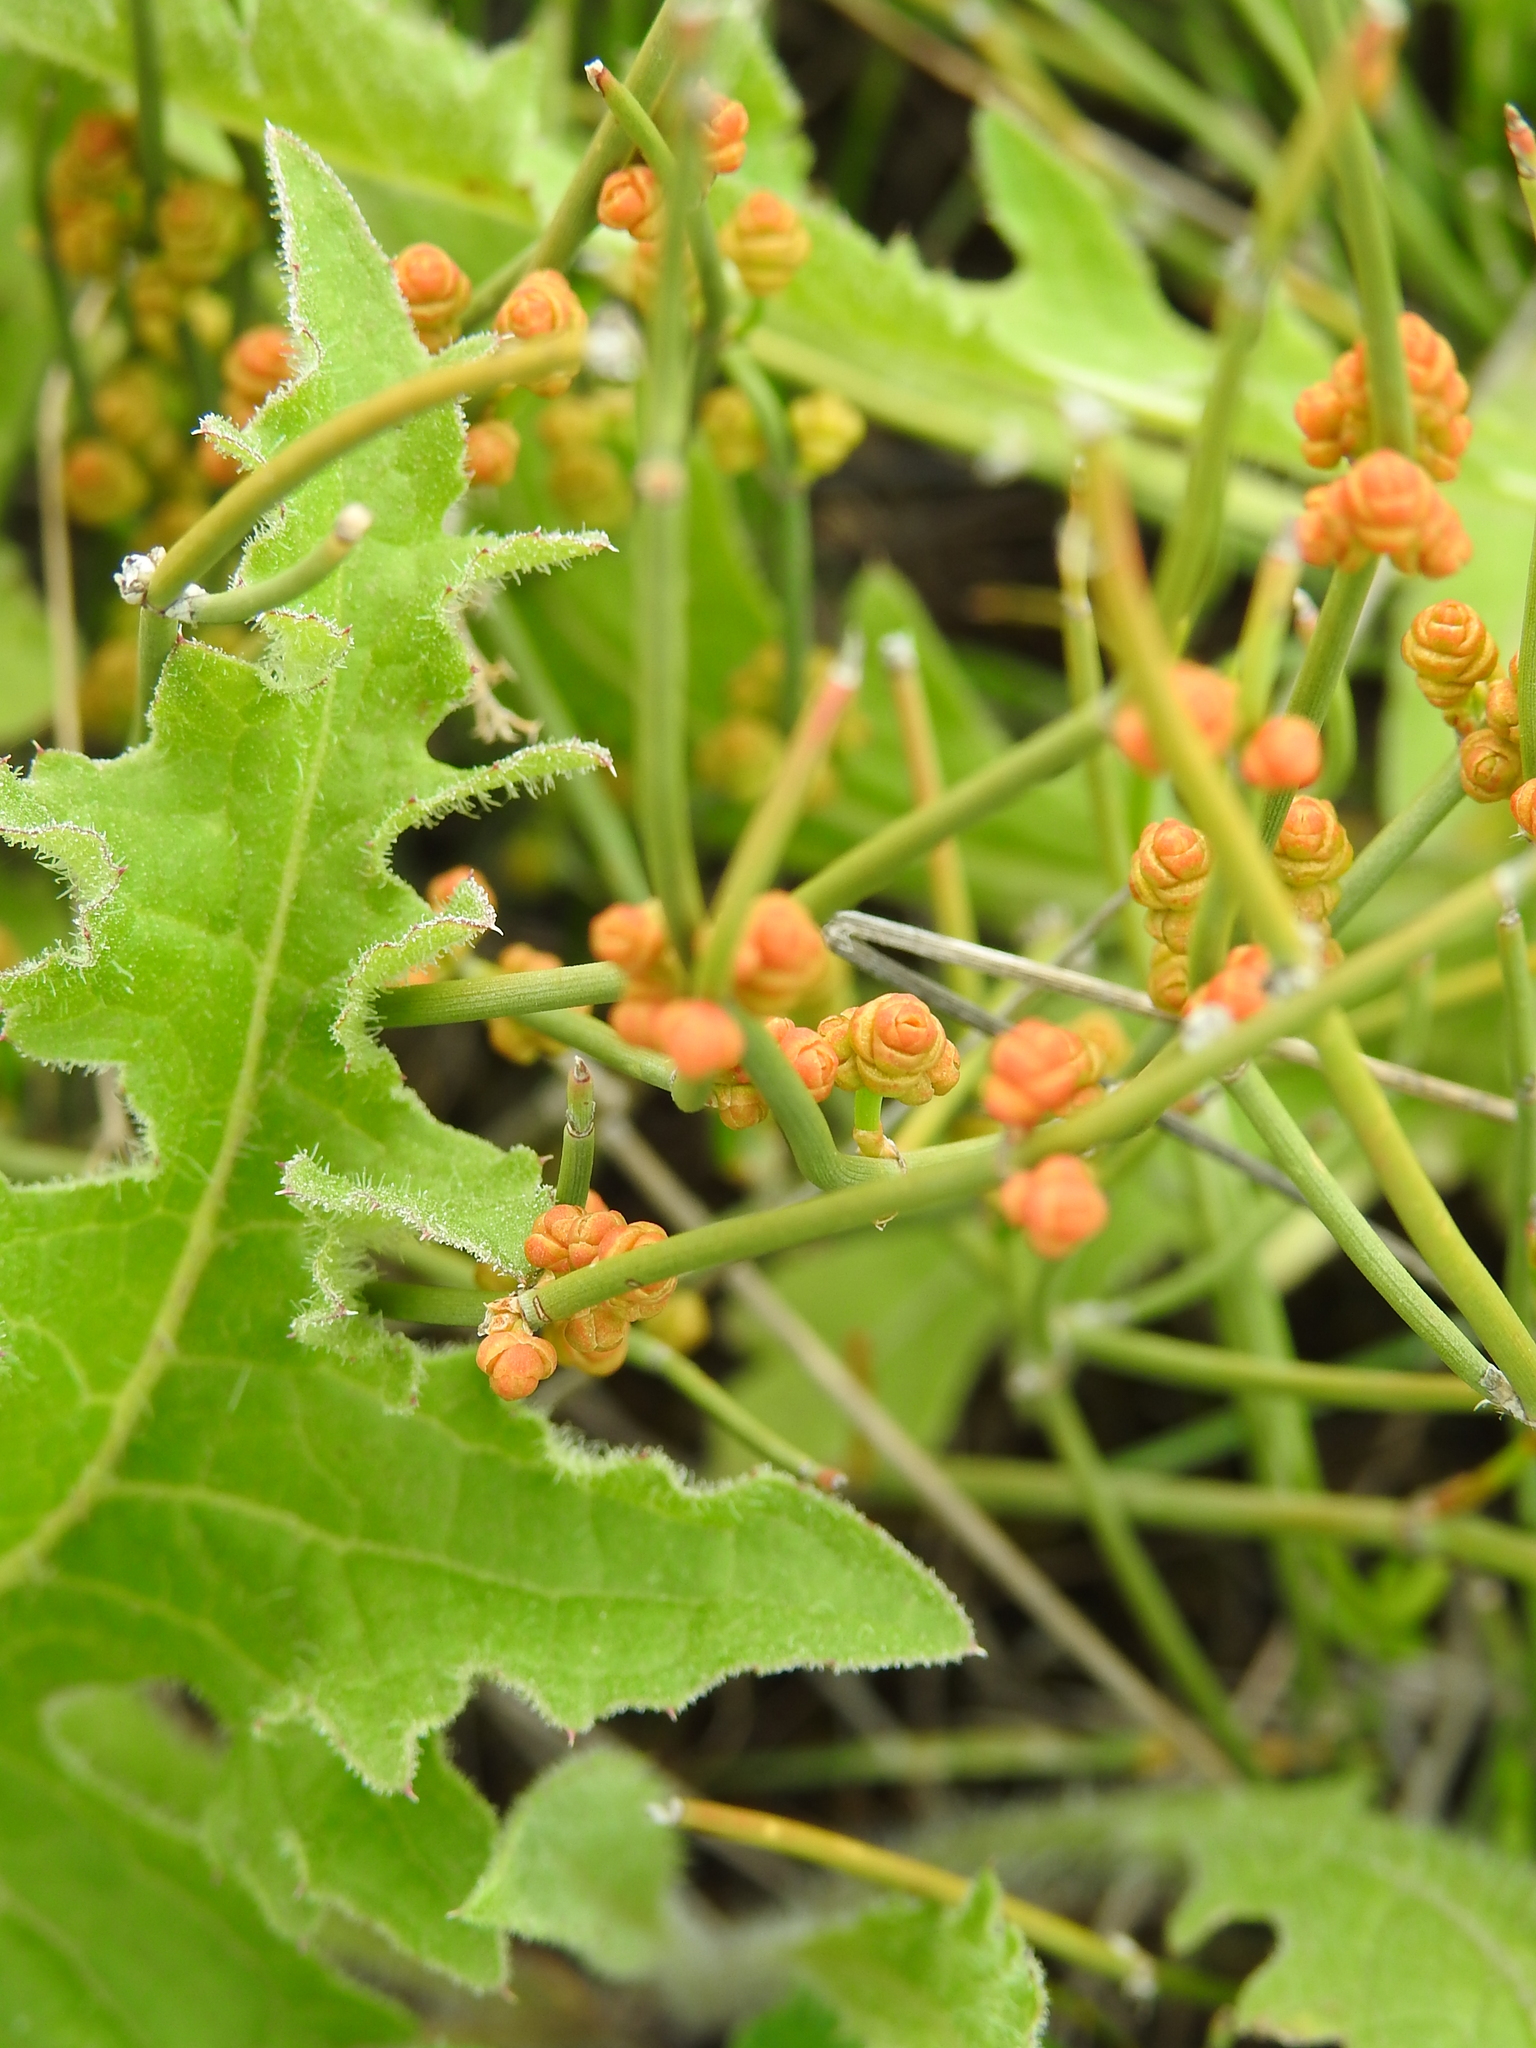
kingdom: Plantae
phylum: Tracheophyta
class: Gnetopsida
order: Ephedrales
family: Ephedraceae
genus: Ephedra
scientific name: Ephedra distachya
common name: Sea grape
